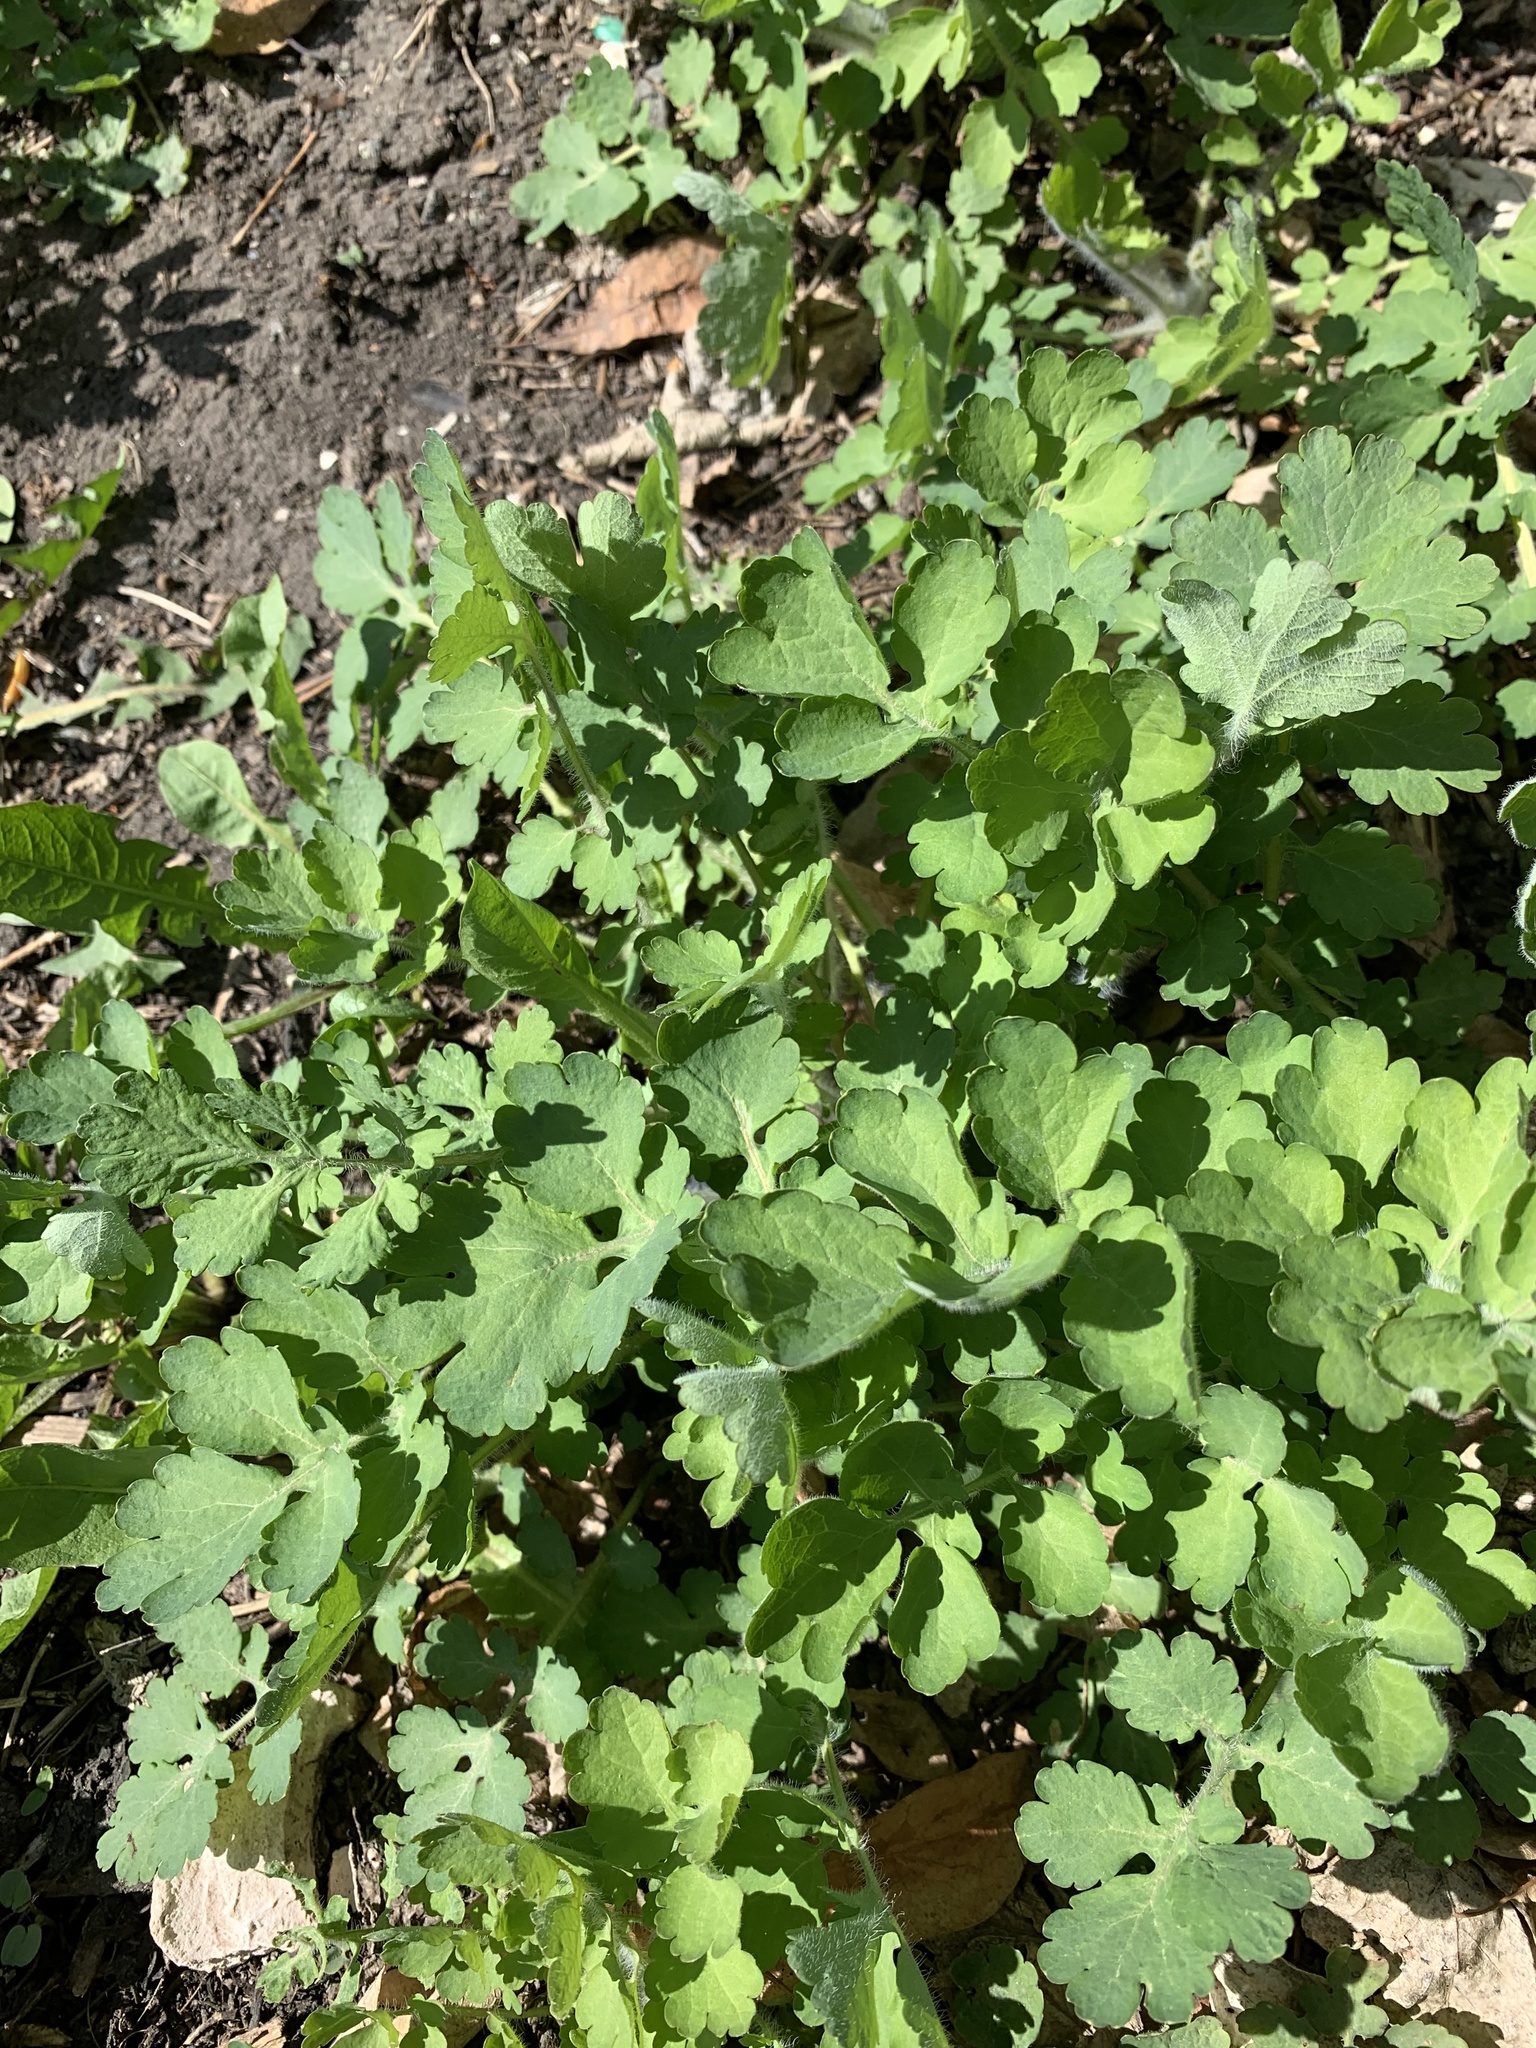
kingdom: Plantae
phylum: Tracheophyta
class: Magnoliopsida
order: Ranunculales
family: Papaveraceae
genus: Chelidonium
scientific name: Chelidonium majus
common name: Greater celandine
